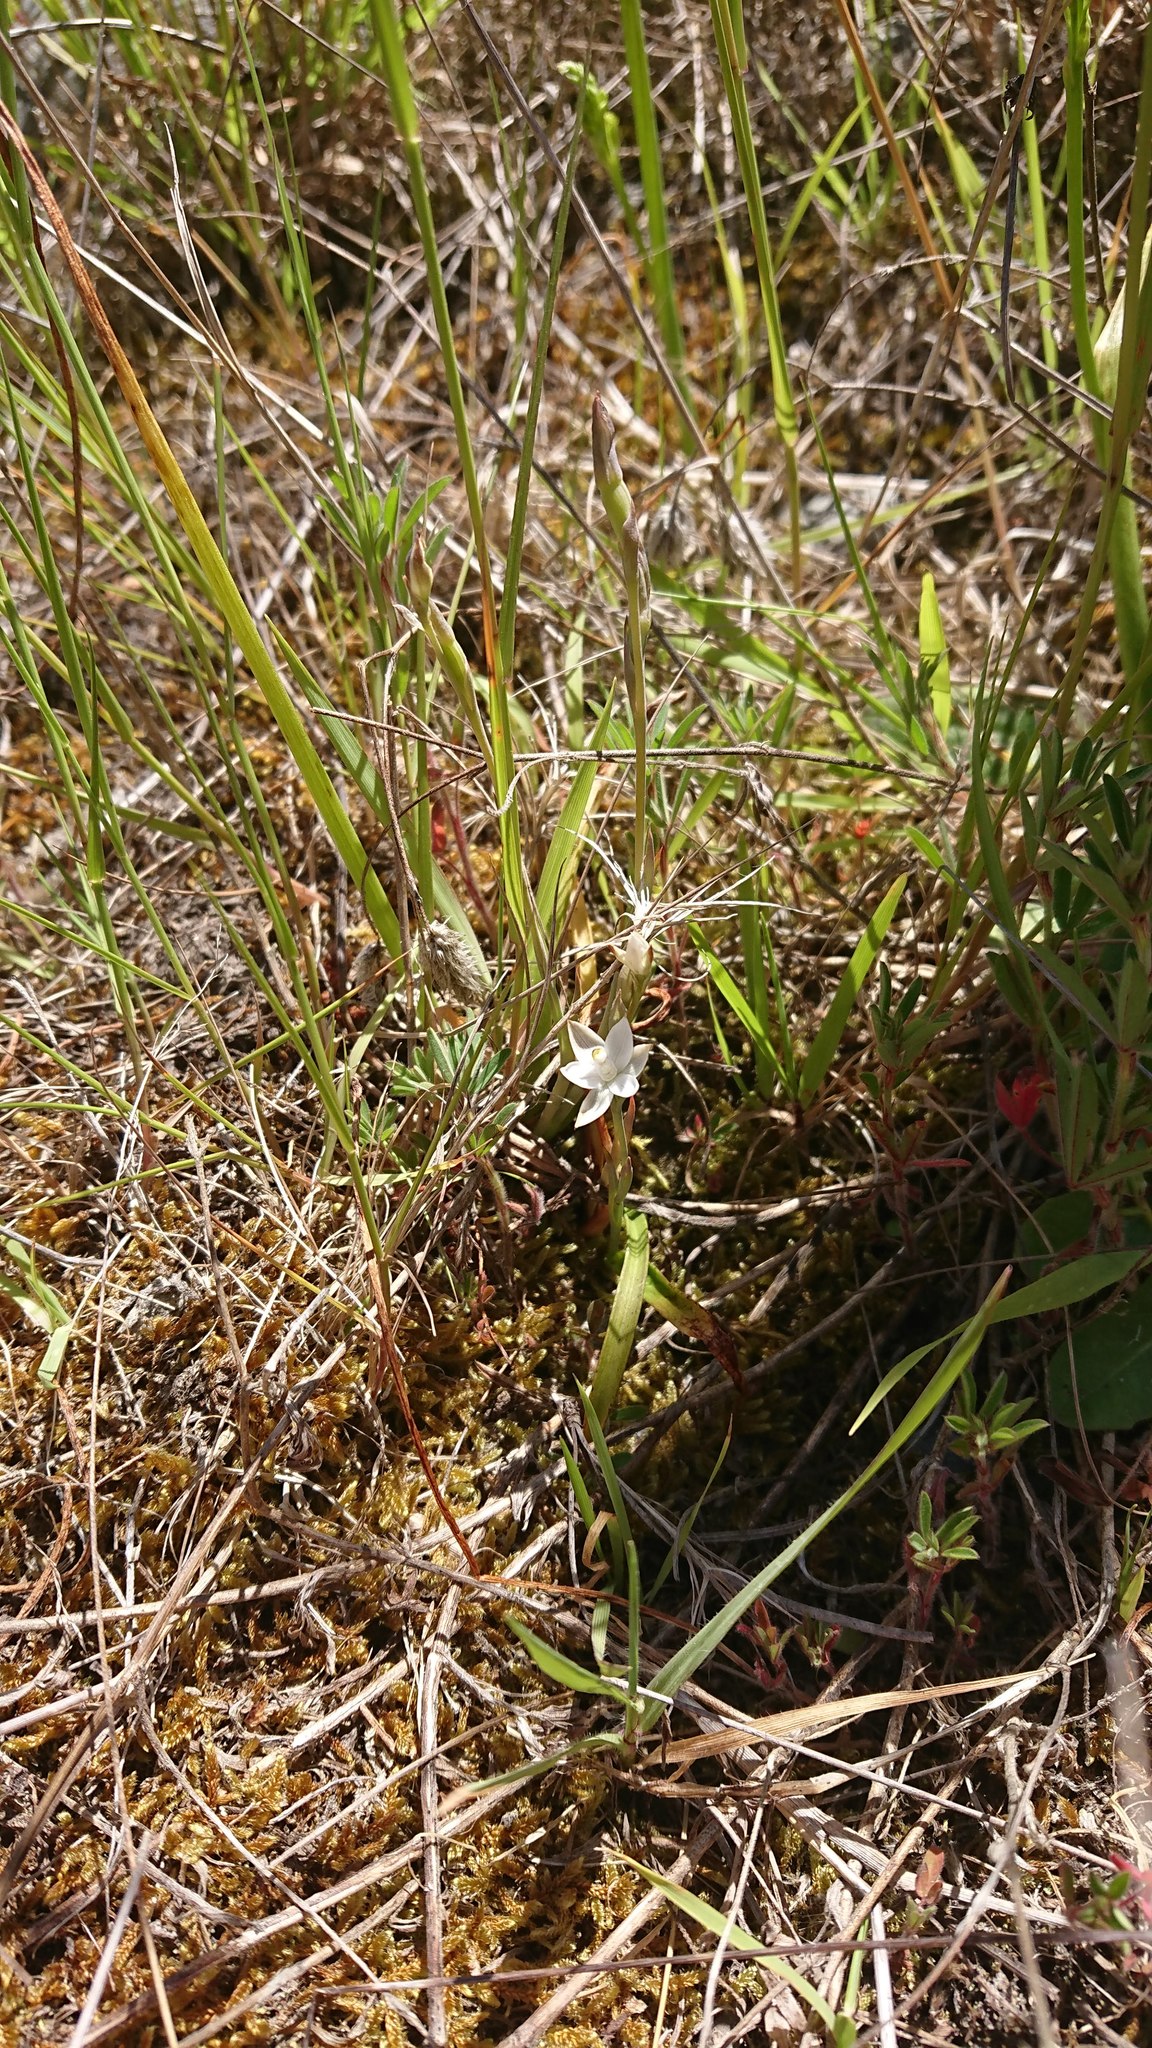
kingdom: Plantae
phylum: Tracheophyta
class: Liliopsida
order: Asparagales
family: Orchidaceae
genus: Thelymitra
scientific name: Thelymitra longifolia
